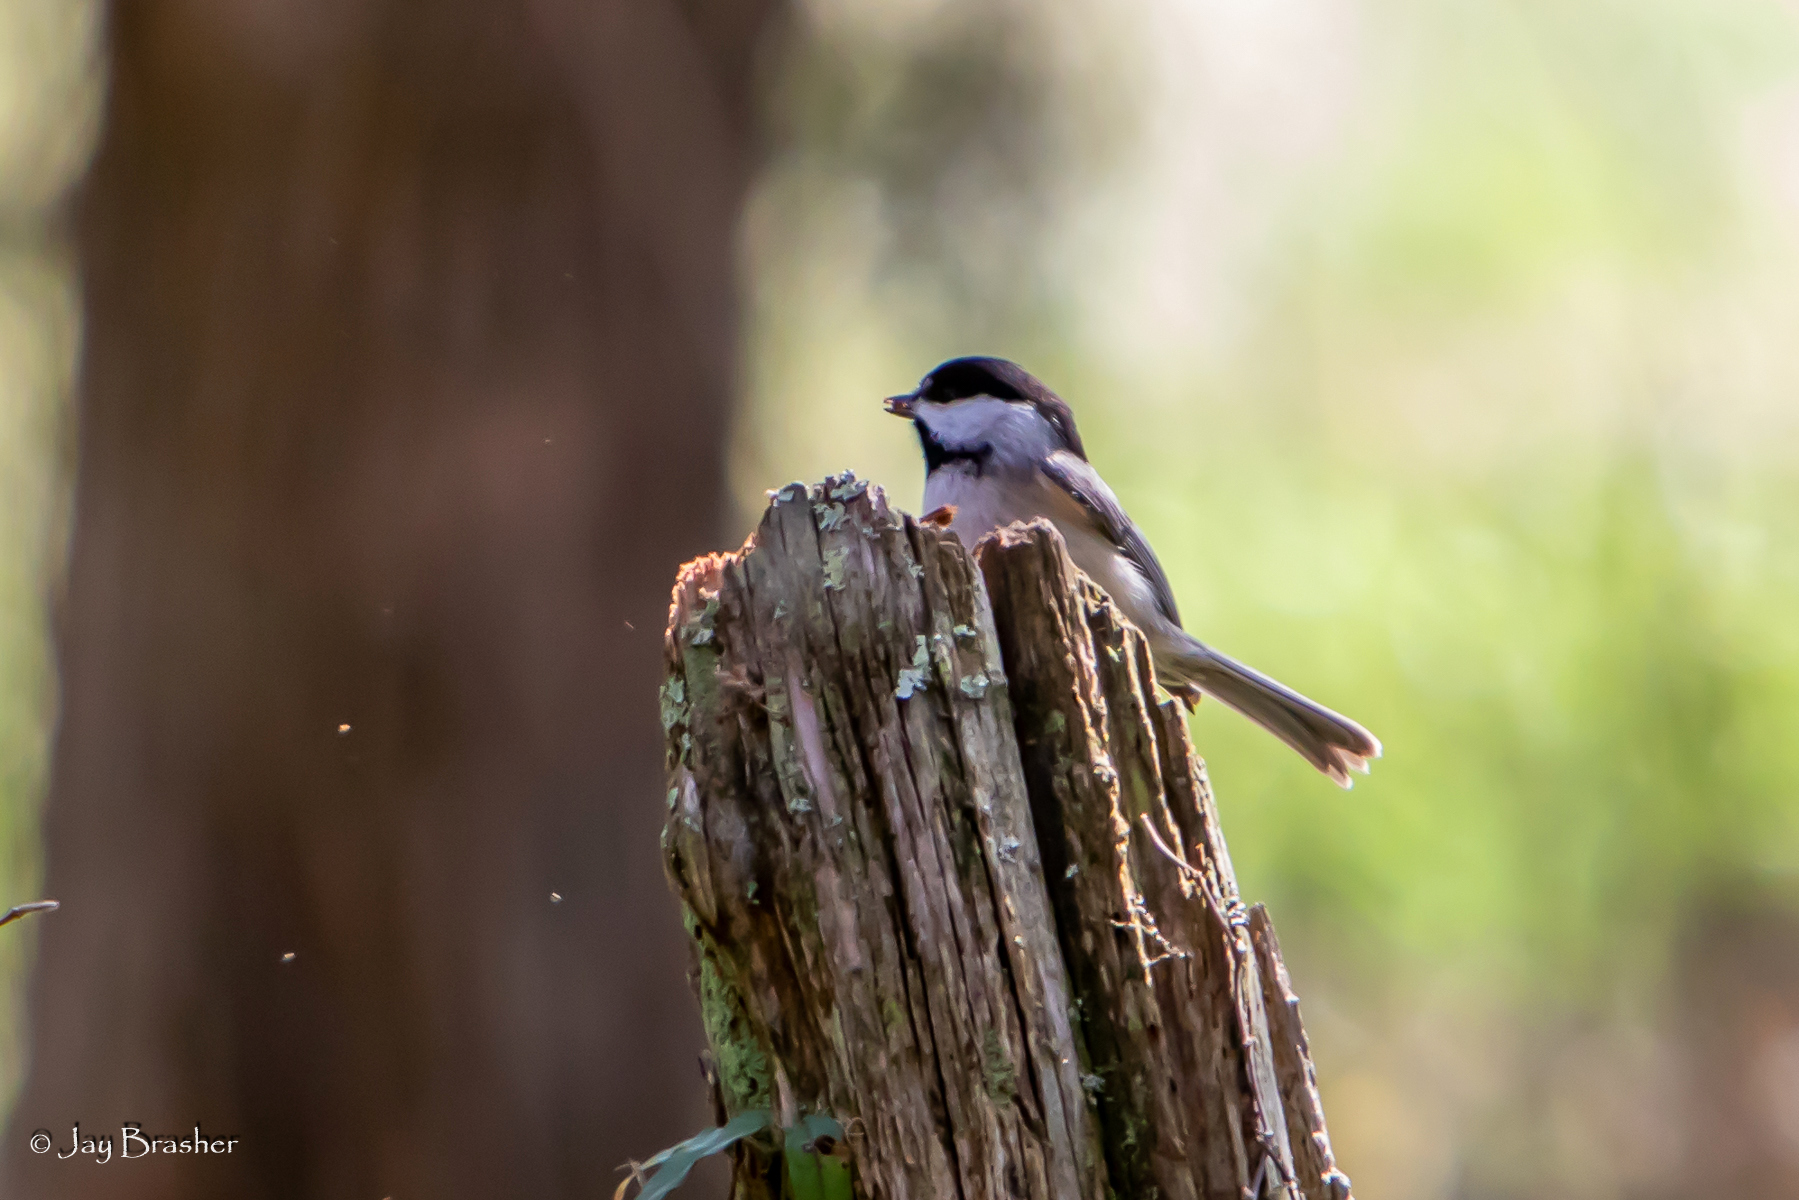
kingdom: Animalia
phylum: Chordata
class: Aves
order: Passeriformes
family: Paridae
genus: Poecile
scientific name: Poecile carolinensis
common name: Carolina chickadee
